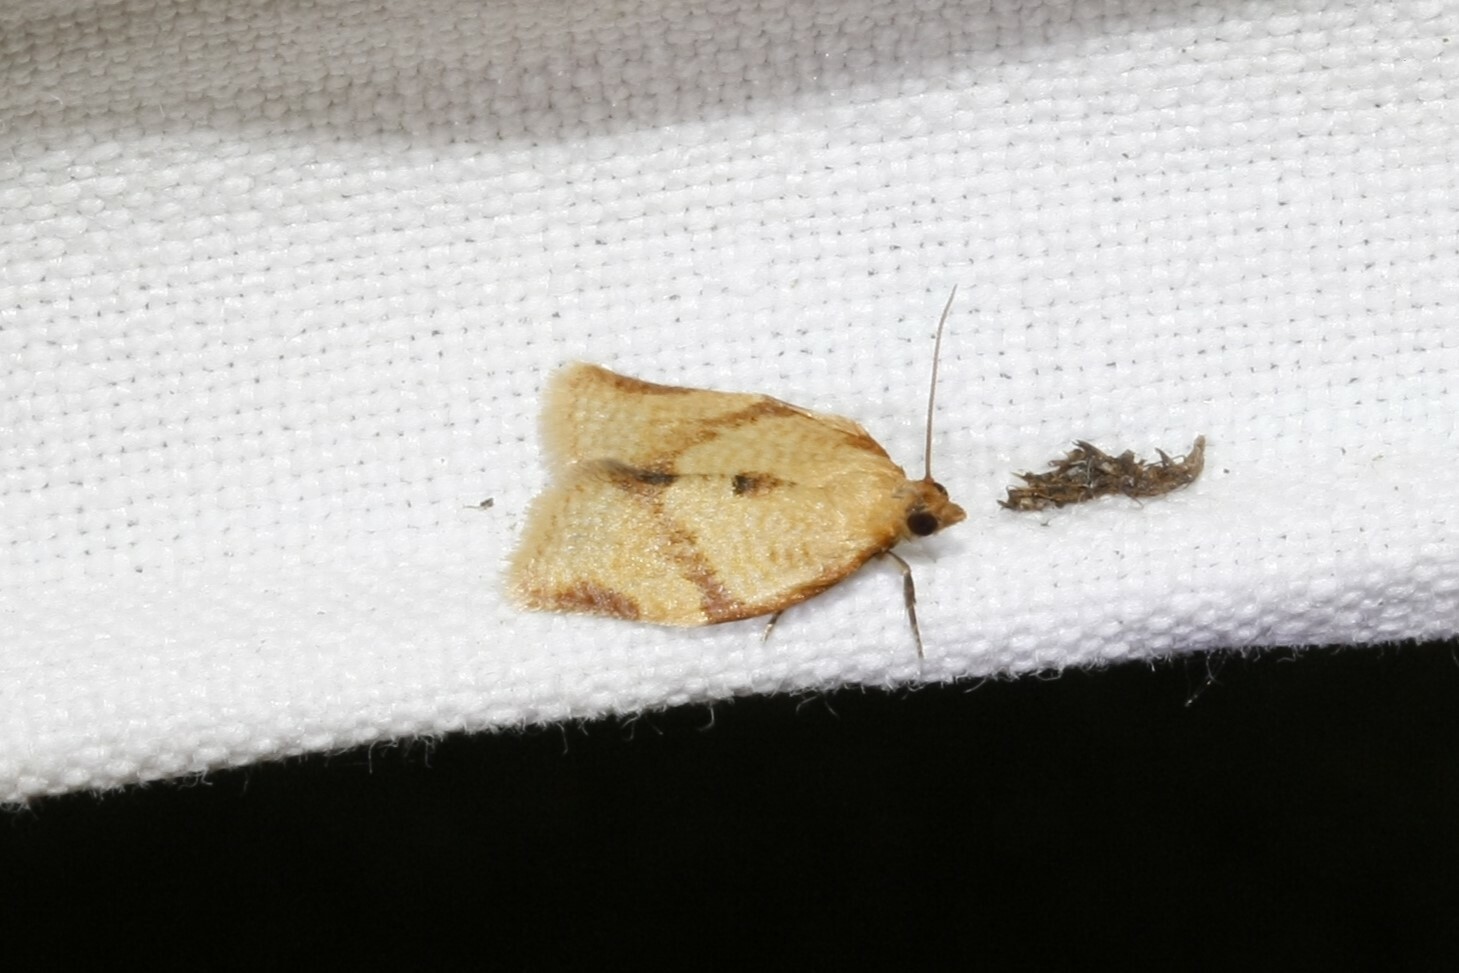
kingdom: Animalia
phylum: Arthropoda
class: Insecta
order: Lepidoptera
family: Tortricidae
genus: Clepsis
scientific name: Clepsis consimilana
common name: Privet tortrix
